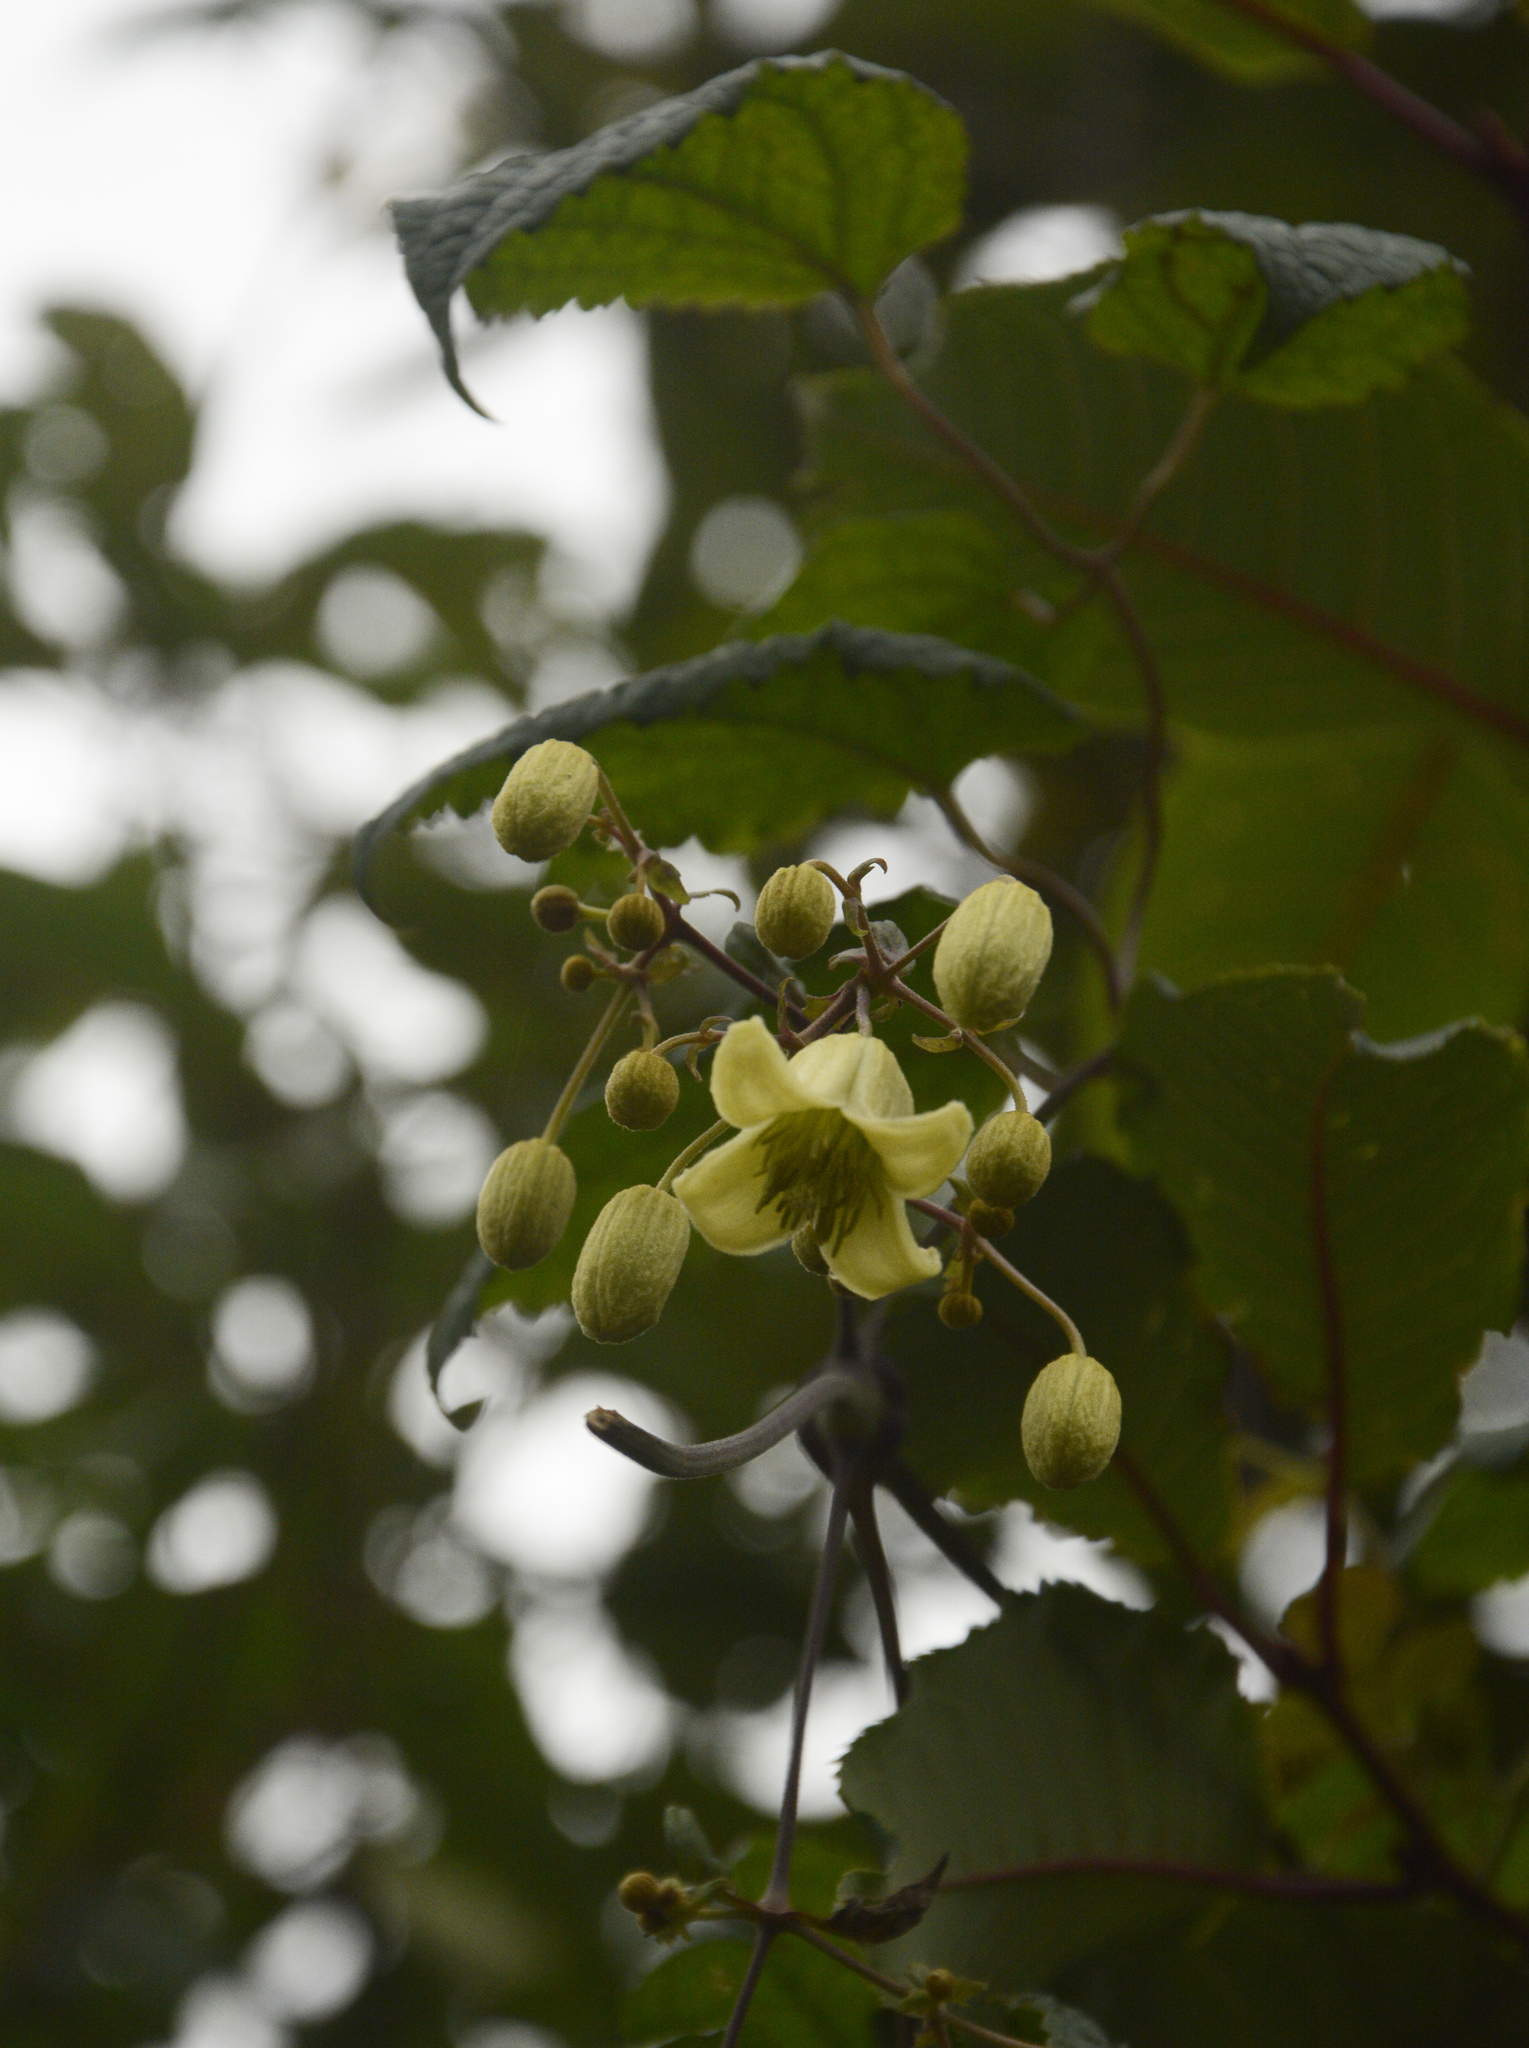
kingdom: Plantae
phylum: Tracheophyta
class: Magnoliopsida
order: Ranunculales
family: Ranunculaceae
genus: Clematis
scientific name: Clematis barbellata
